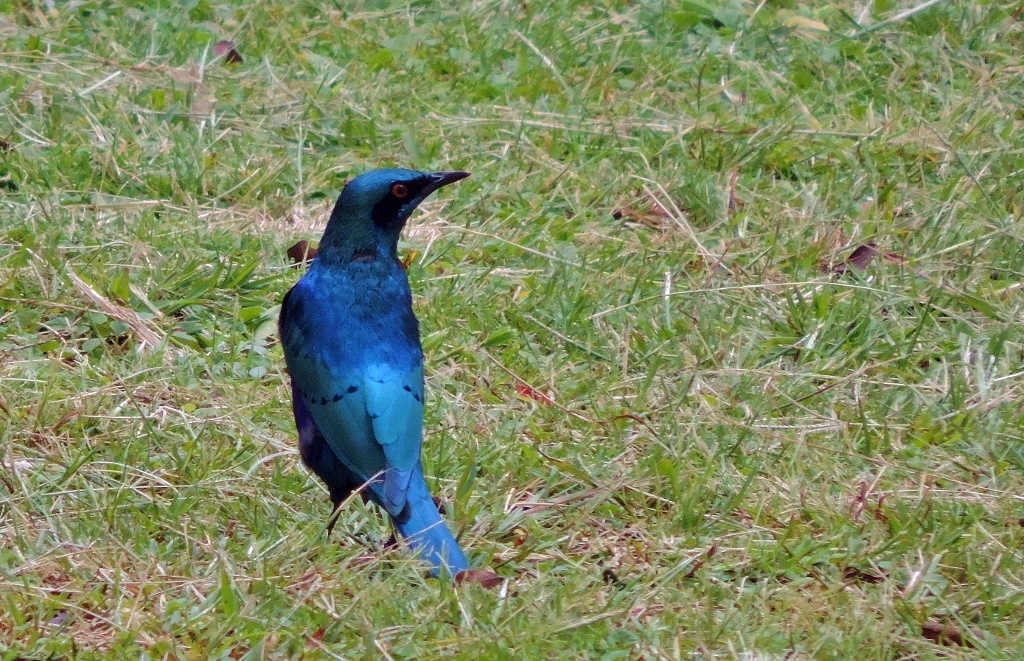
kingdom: Animalia
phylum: Chordata
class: Aves
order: Passeriformes
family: Sturnidae
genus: Lamprotornis
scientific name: Lamprotornis chloropterus
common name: Lesser blue-eared starling
